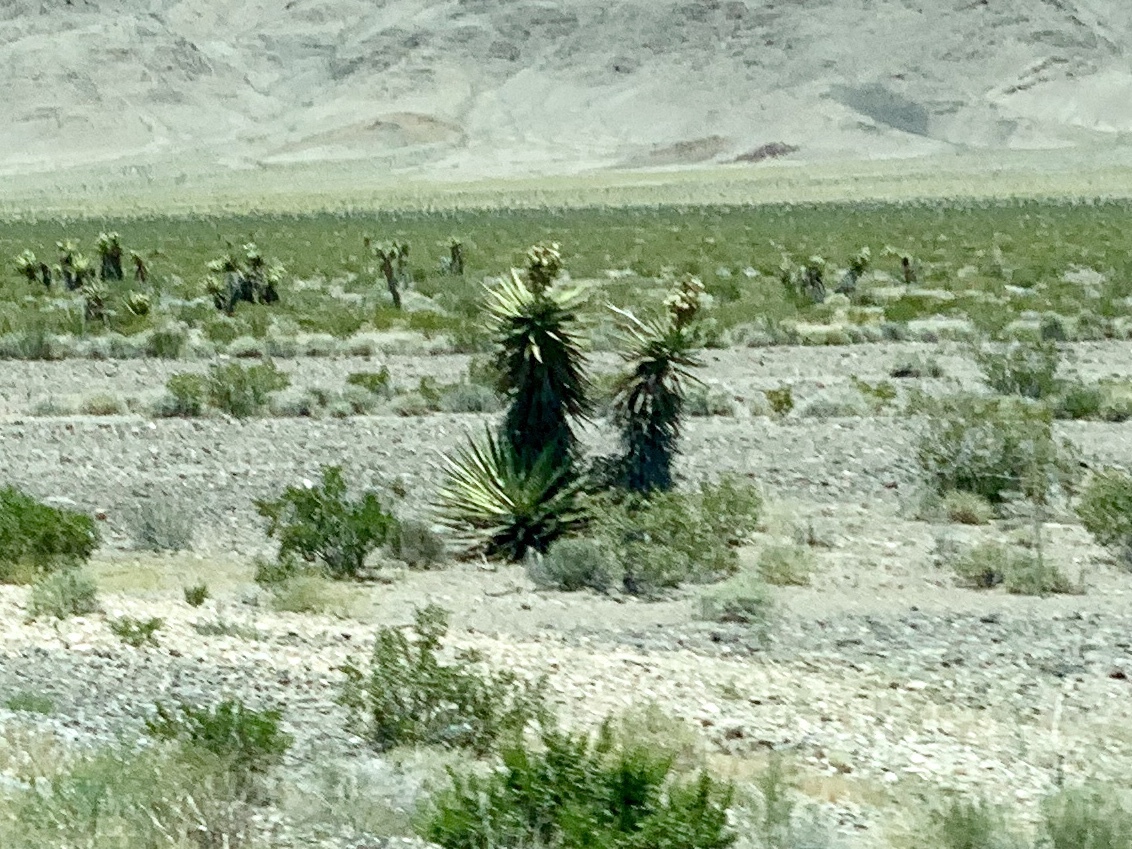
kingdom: Plantae
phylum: Tracheophyta
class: Liliopsida
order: Asparagales
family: Asparagaceae
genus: Yucca
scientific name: Yucca schidigera
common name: Mojave yucca
